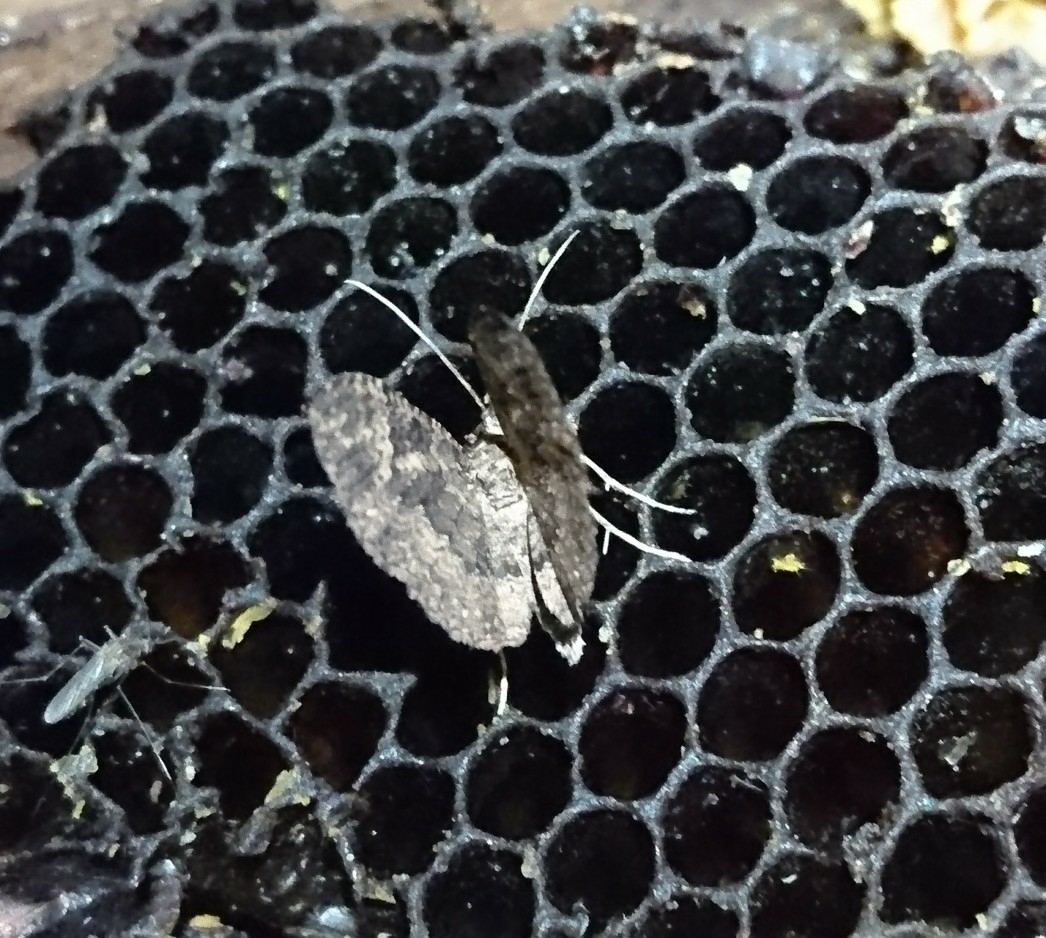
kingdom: Animalia
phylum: Arthropoda
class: Insecta
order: Lepidoptera
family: Geometridae
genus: Disclisioprocta
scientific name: Disclisioprocta stellata
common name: Somber carpet
